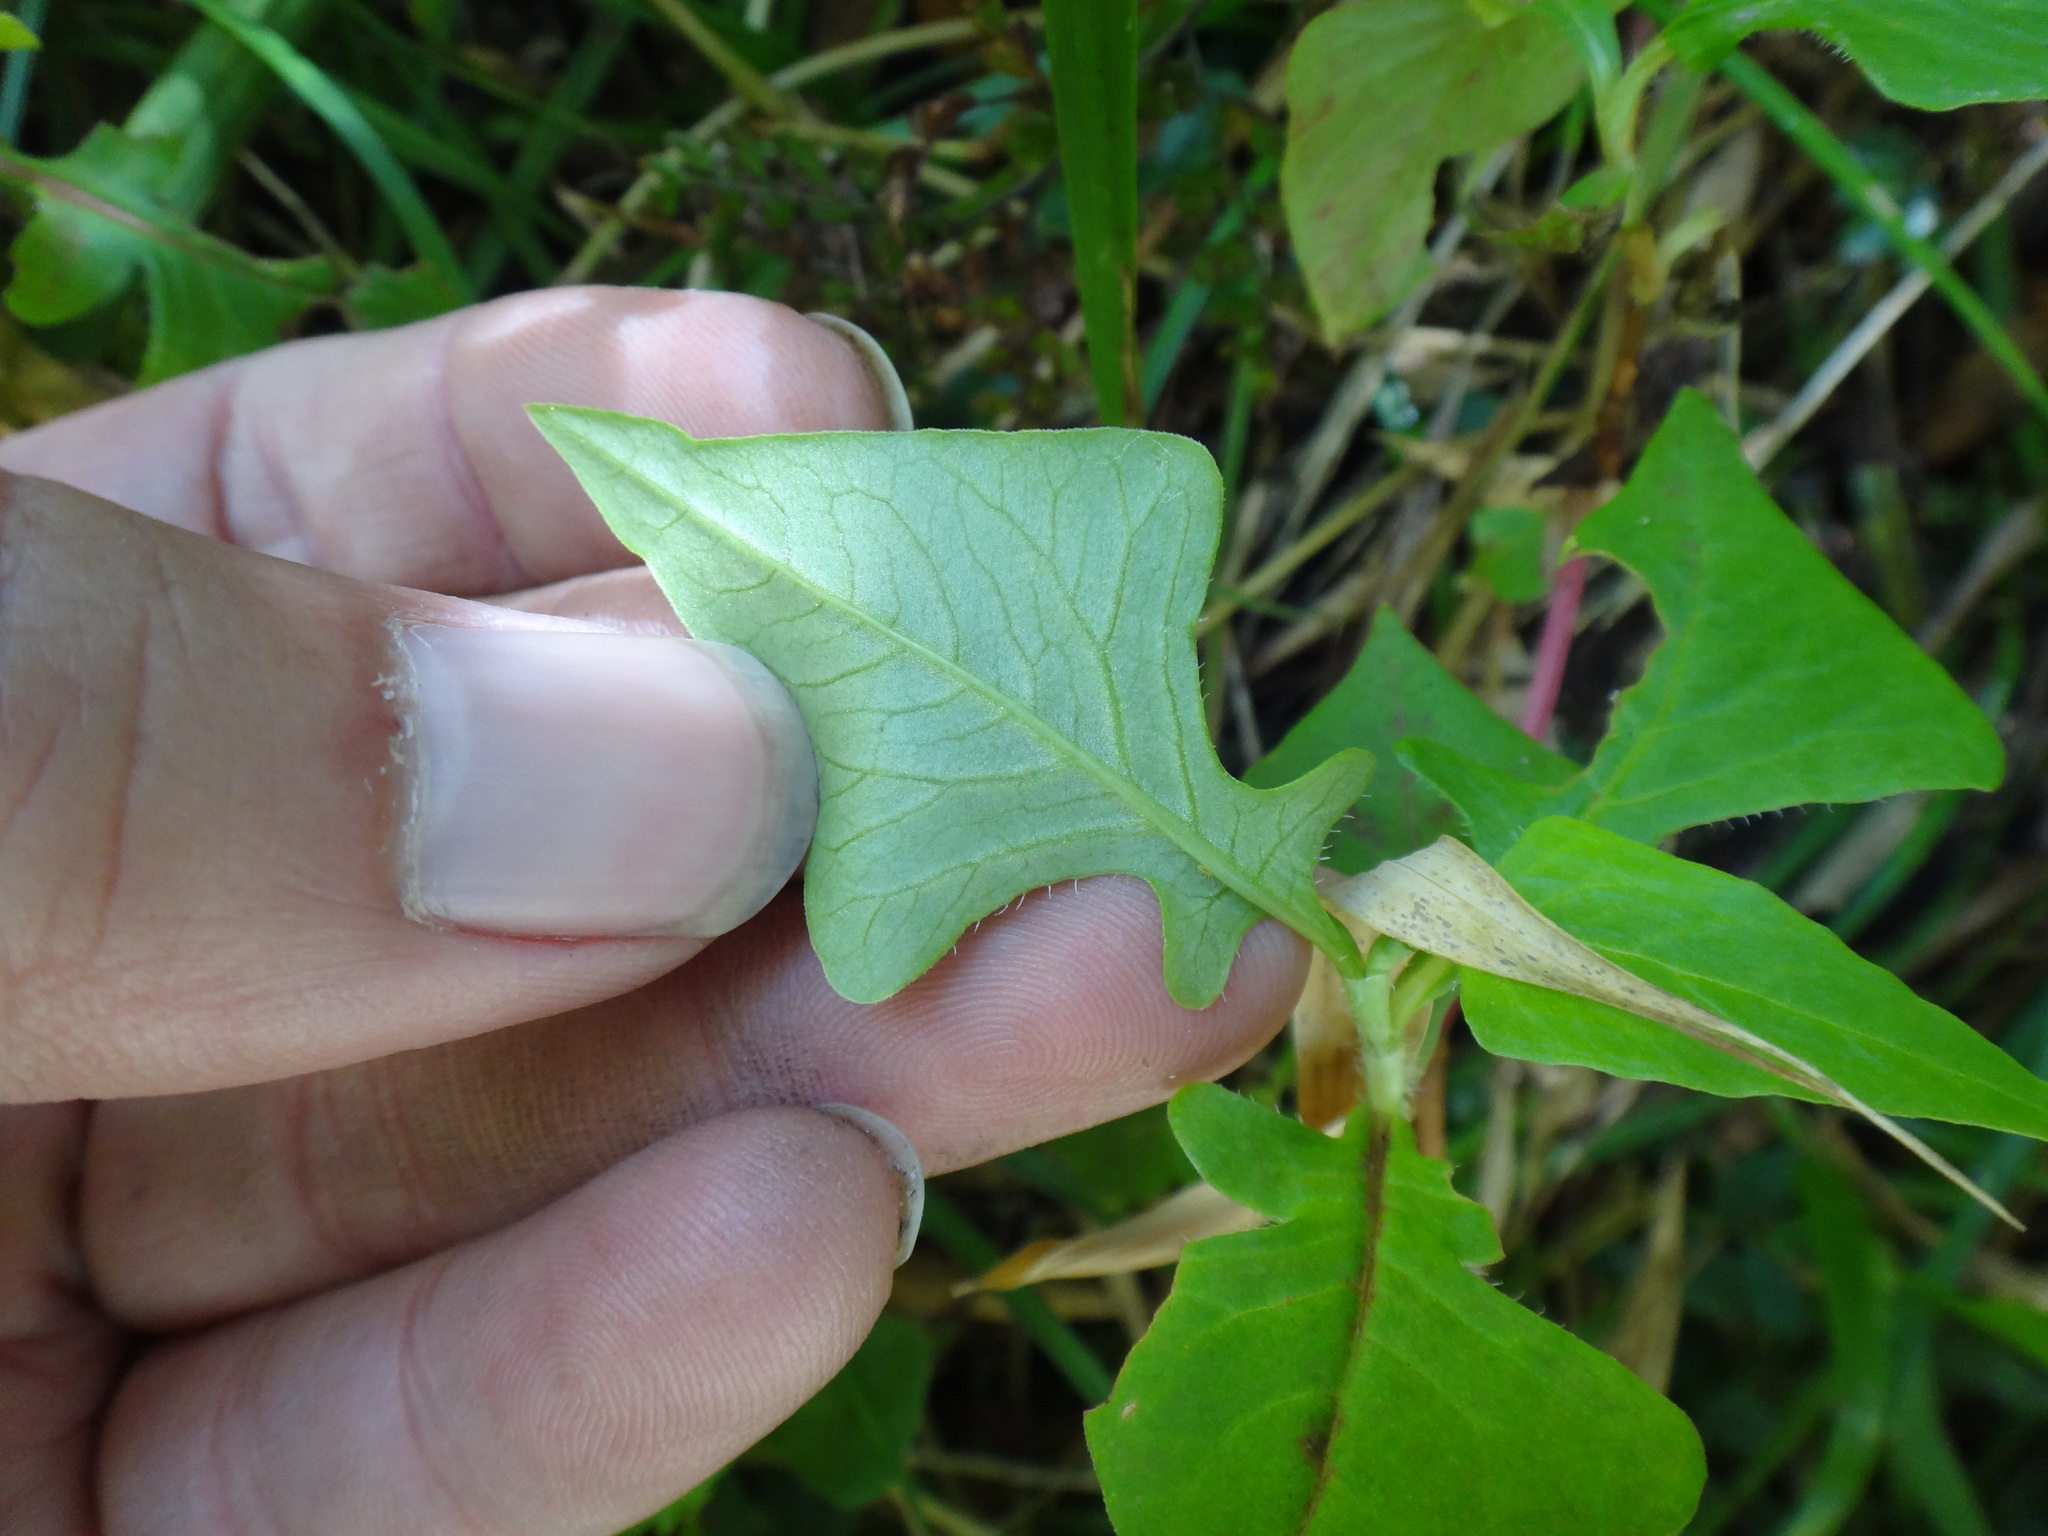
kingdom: Plantae
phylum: Tracheophyta
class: Magnoliopsida
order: Caryophyllales
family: Polygonaceae
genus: Persicaria
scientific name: Persicaria runcinata
